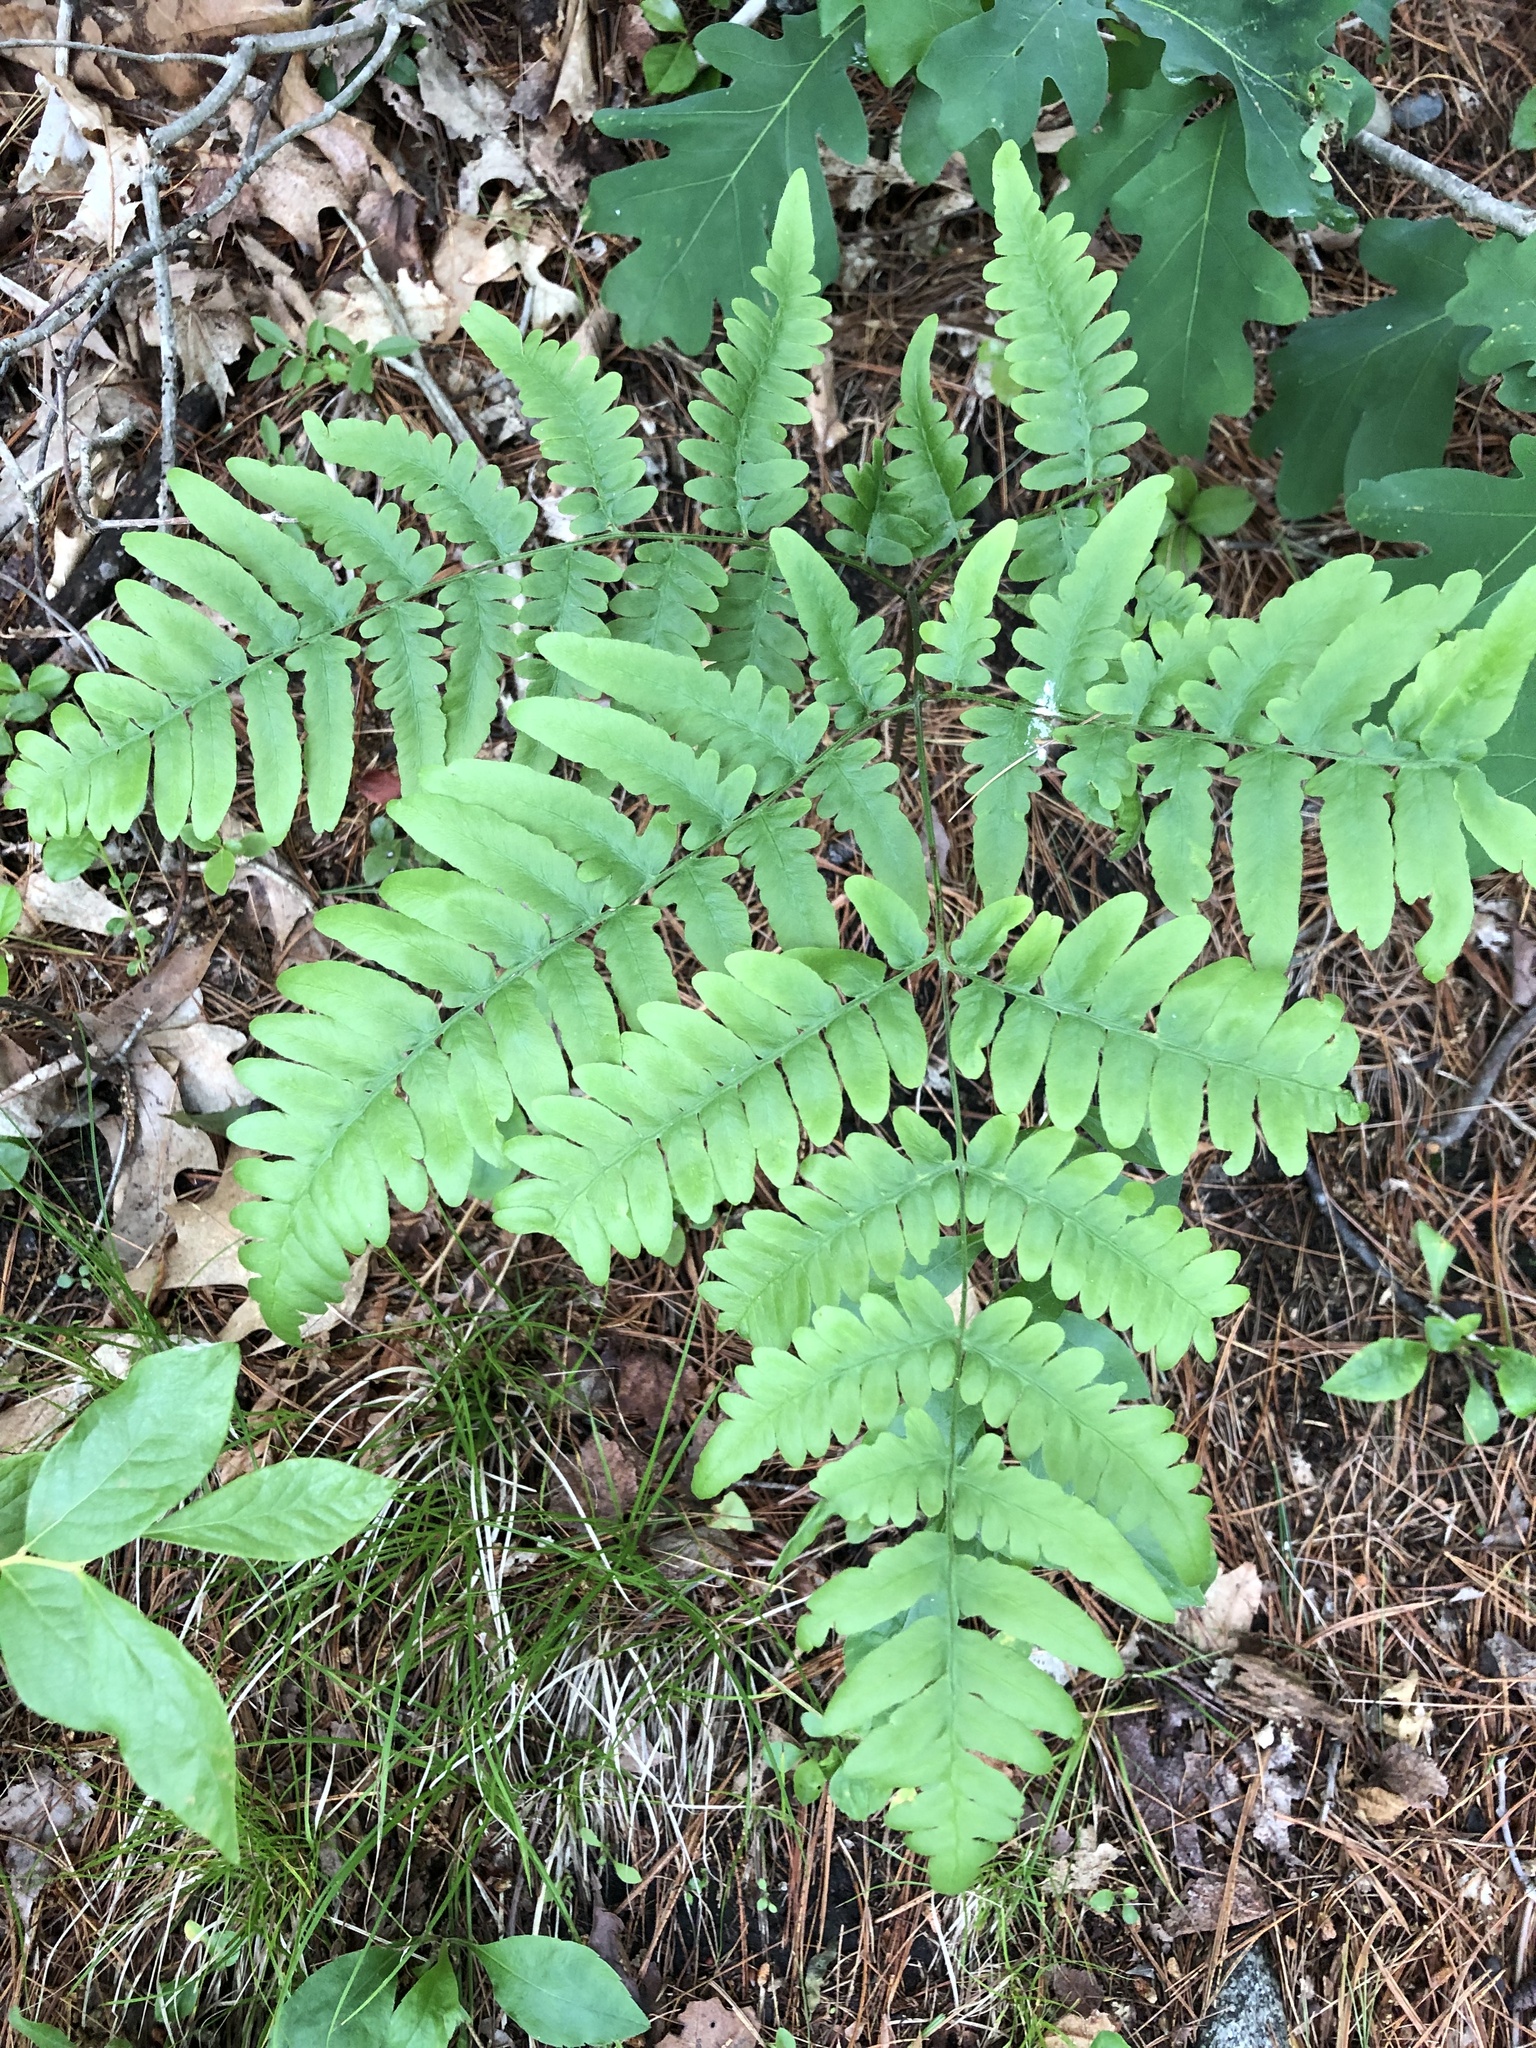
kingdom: Plantae
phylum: Tracheophyta
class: Polypodiopsida
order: Polypodiales
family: Dennstaedtiaceae
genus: Pteridium
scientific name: Pteridium aquilinum
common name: Bracken
